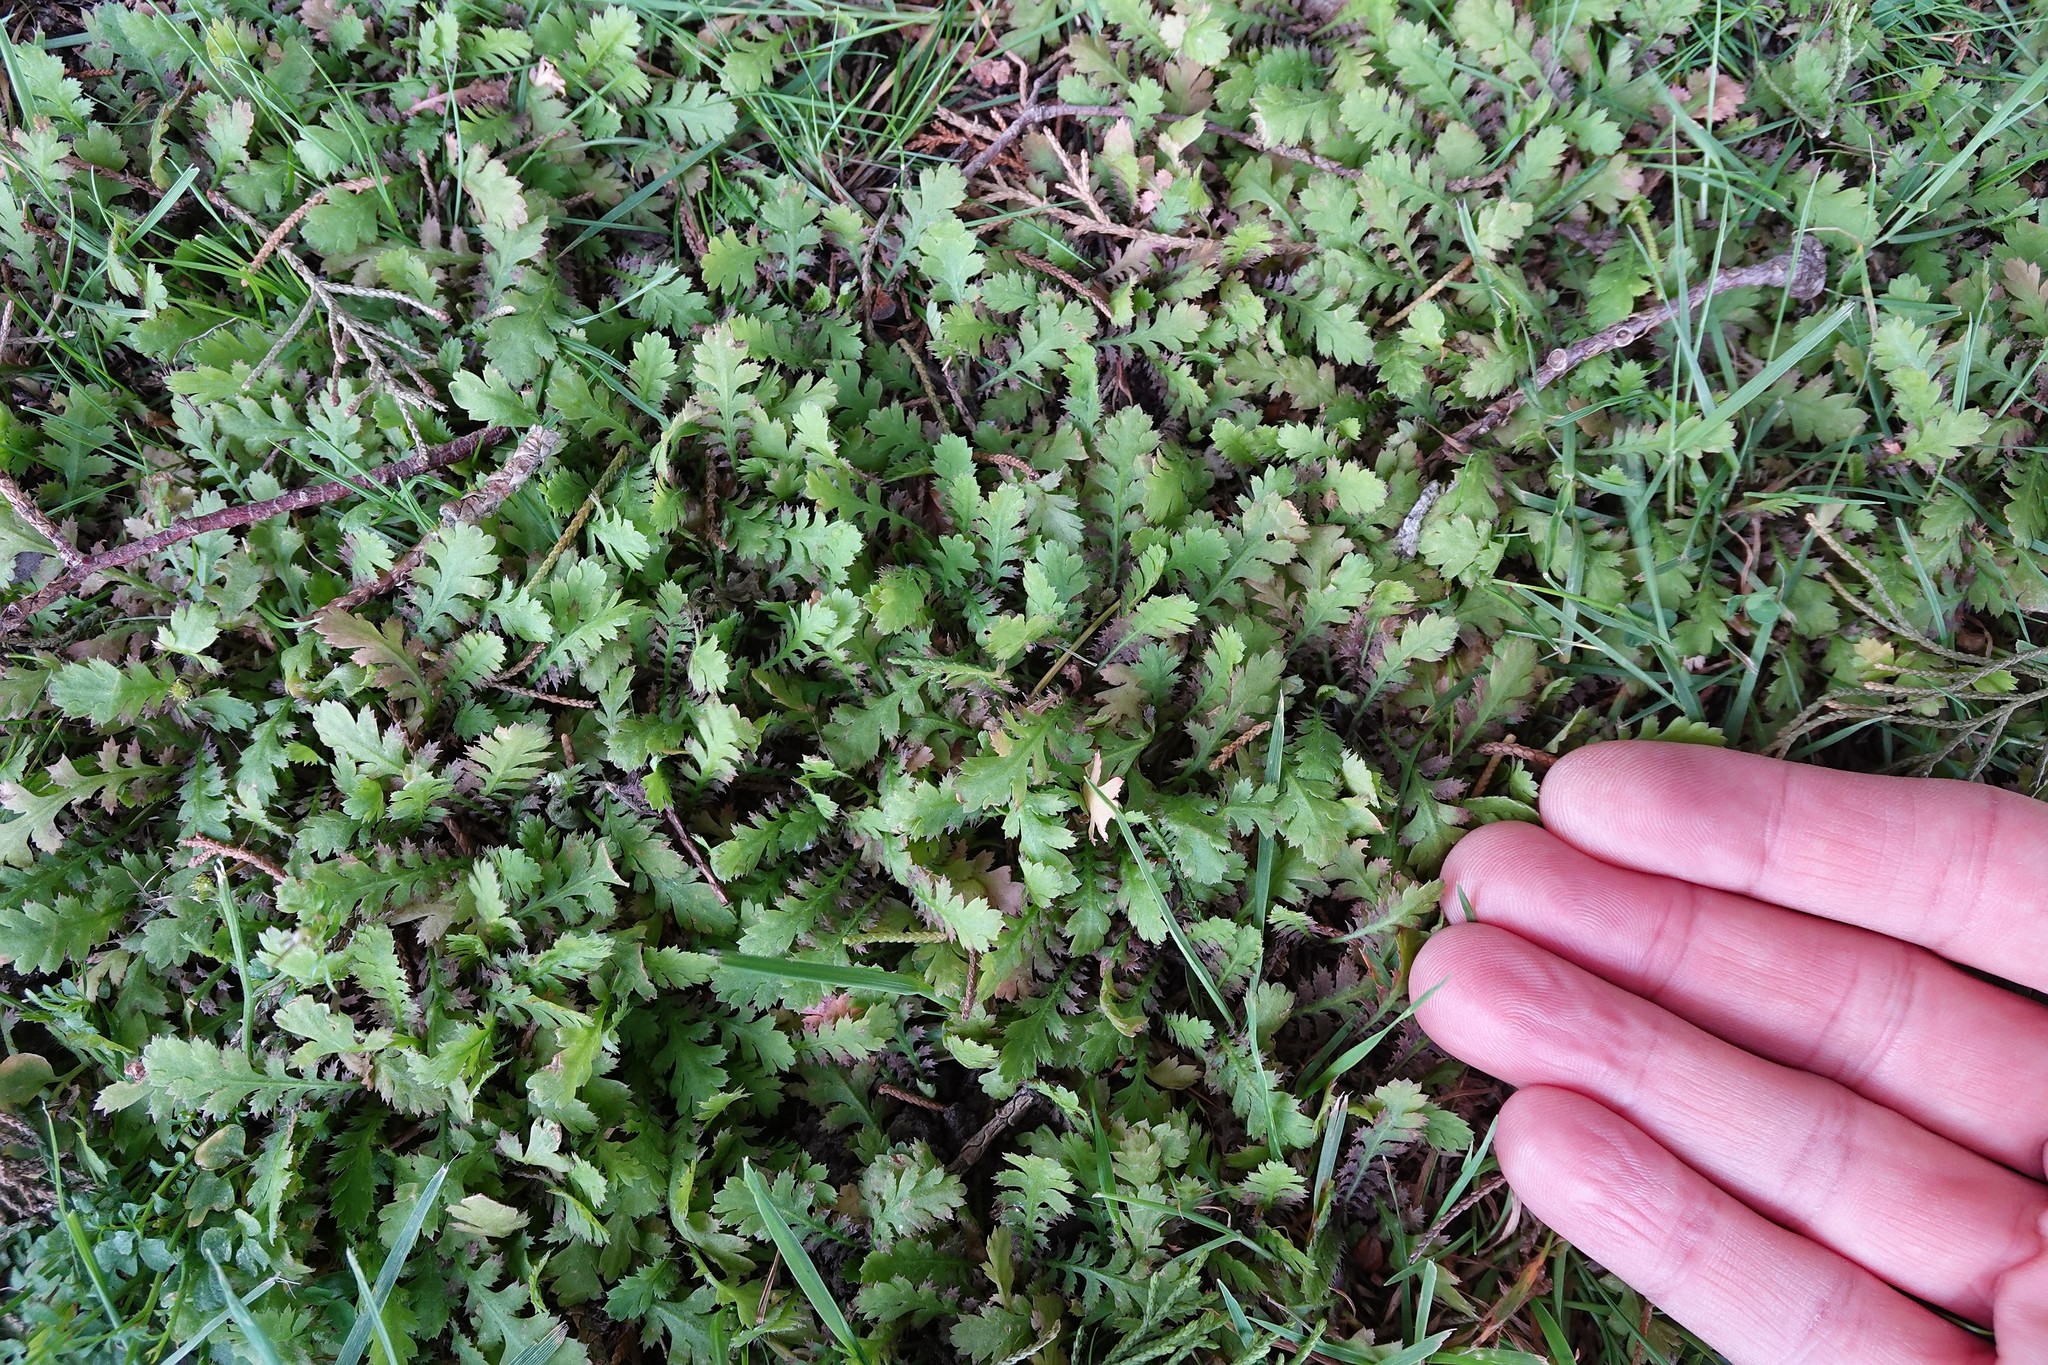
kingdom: Plantae
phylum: Tracheophyta
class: Magnoliopsida
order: Asterales
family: Asteraceae
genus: Leptinella
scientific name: Leptinella squalida
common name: New zealand brass-buttons
